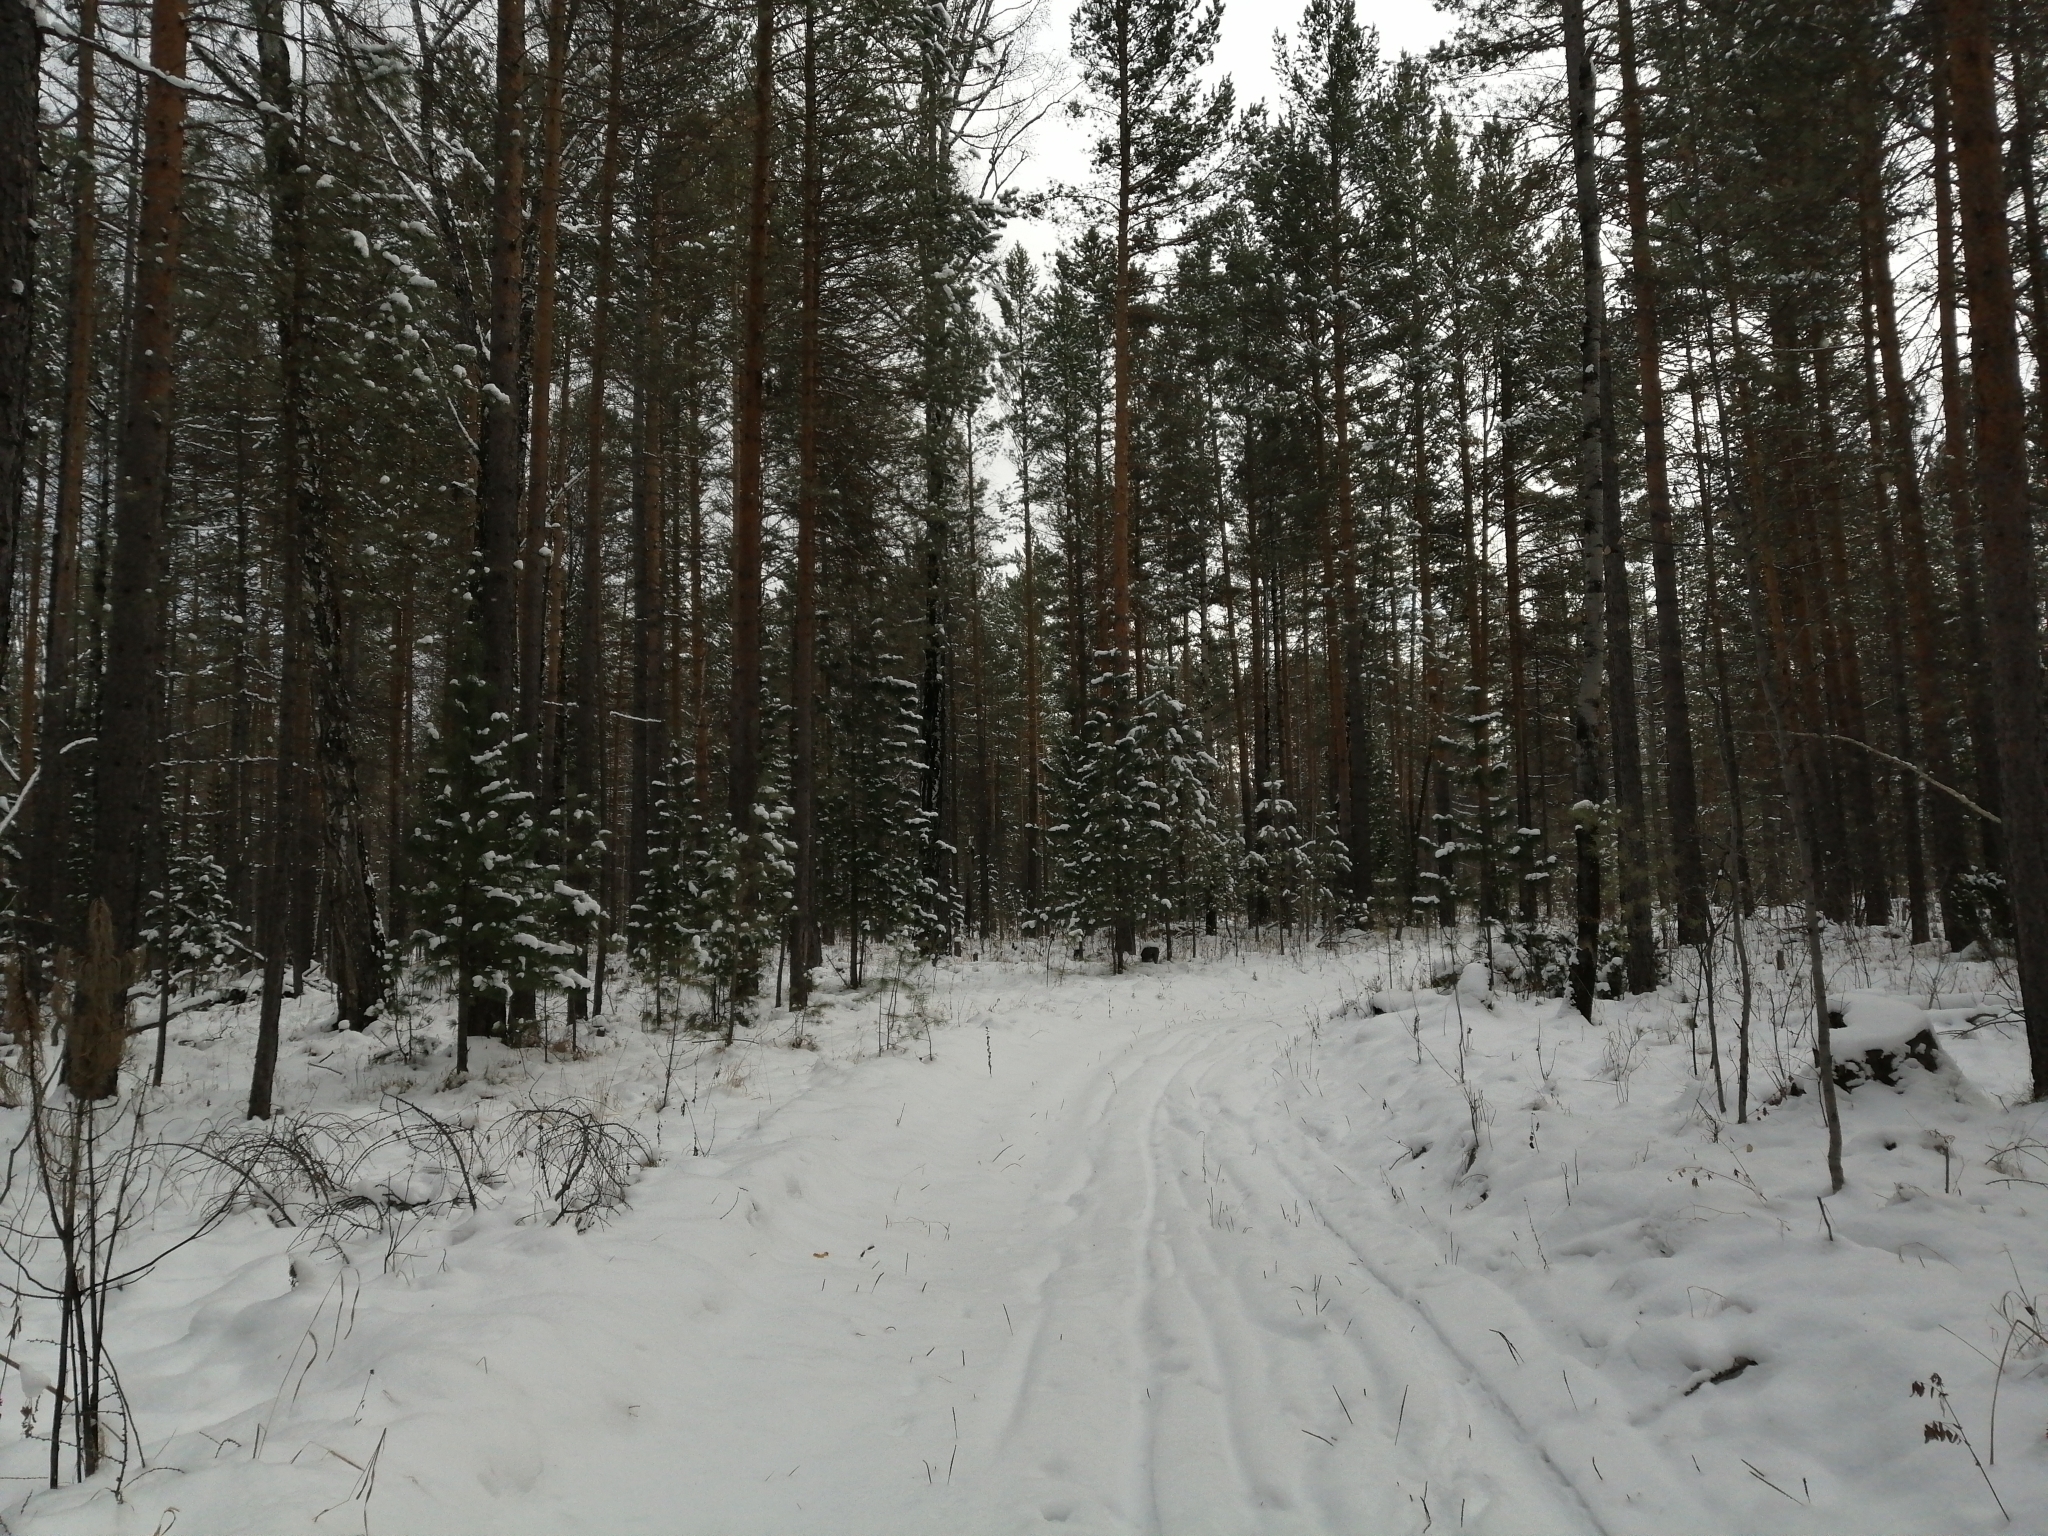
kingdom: Plantae
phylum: Tracheophyta
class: Pinopsida
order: Pinales
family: Pinaceae
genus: Pinus
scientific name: Pinus sylvestris
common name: Scots pine
